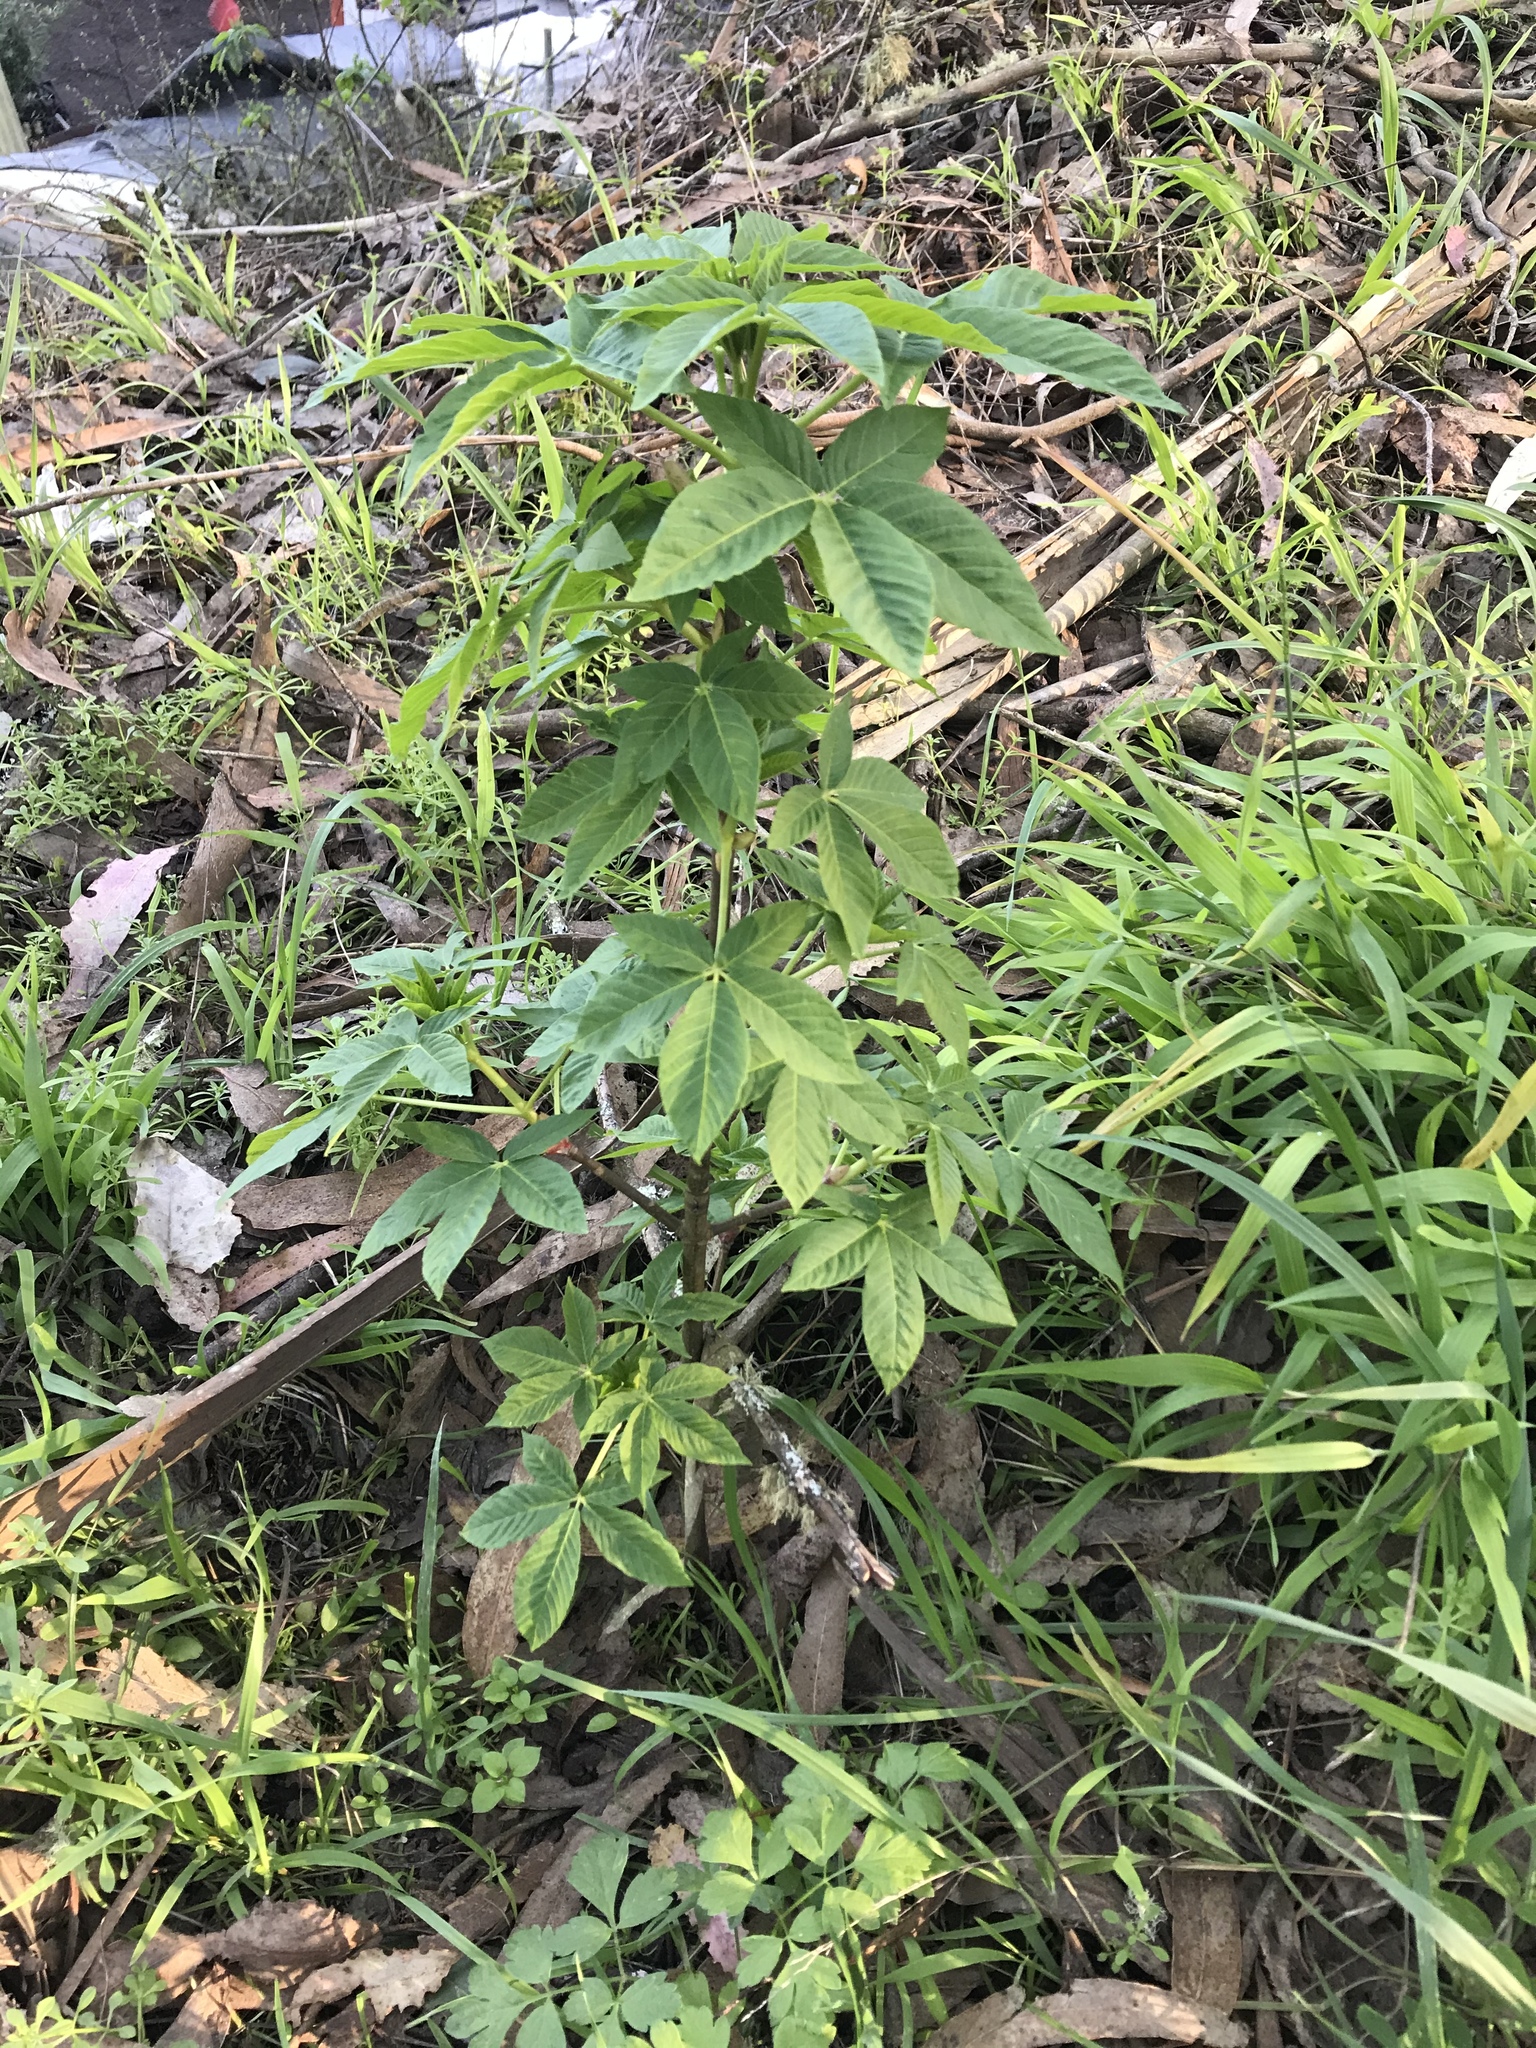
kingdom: Plantae
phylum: Tracheophyta
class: Magnoliopsida
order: Sapindales
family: Sapindaceae
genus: Aesculus
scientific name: Aesculus californica
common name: California buckeye
